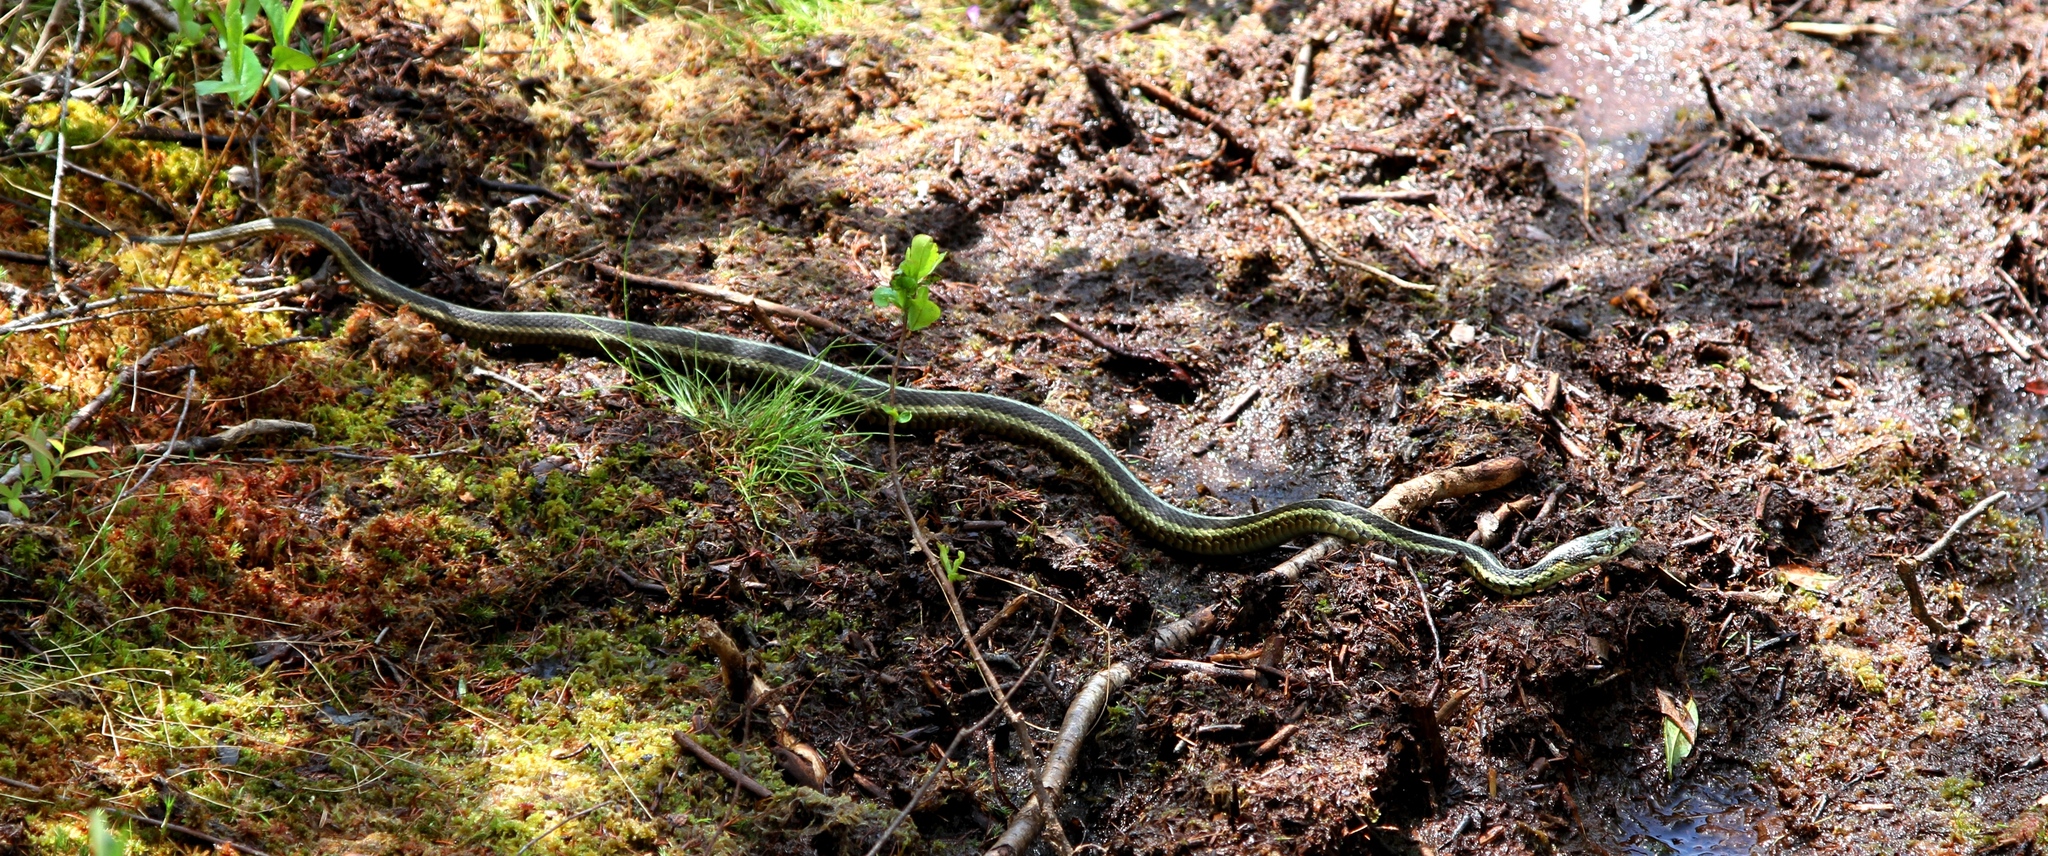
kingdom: Animalia
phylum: Chordata
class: Squamata
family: Colubridae
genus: Thamnophis
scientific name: Thamnophis sirtalis
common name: Common garter snake
